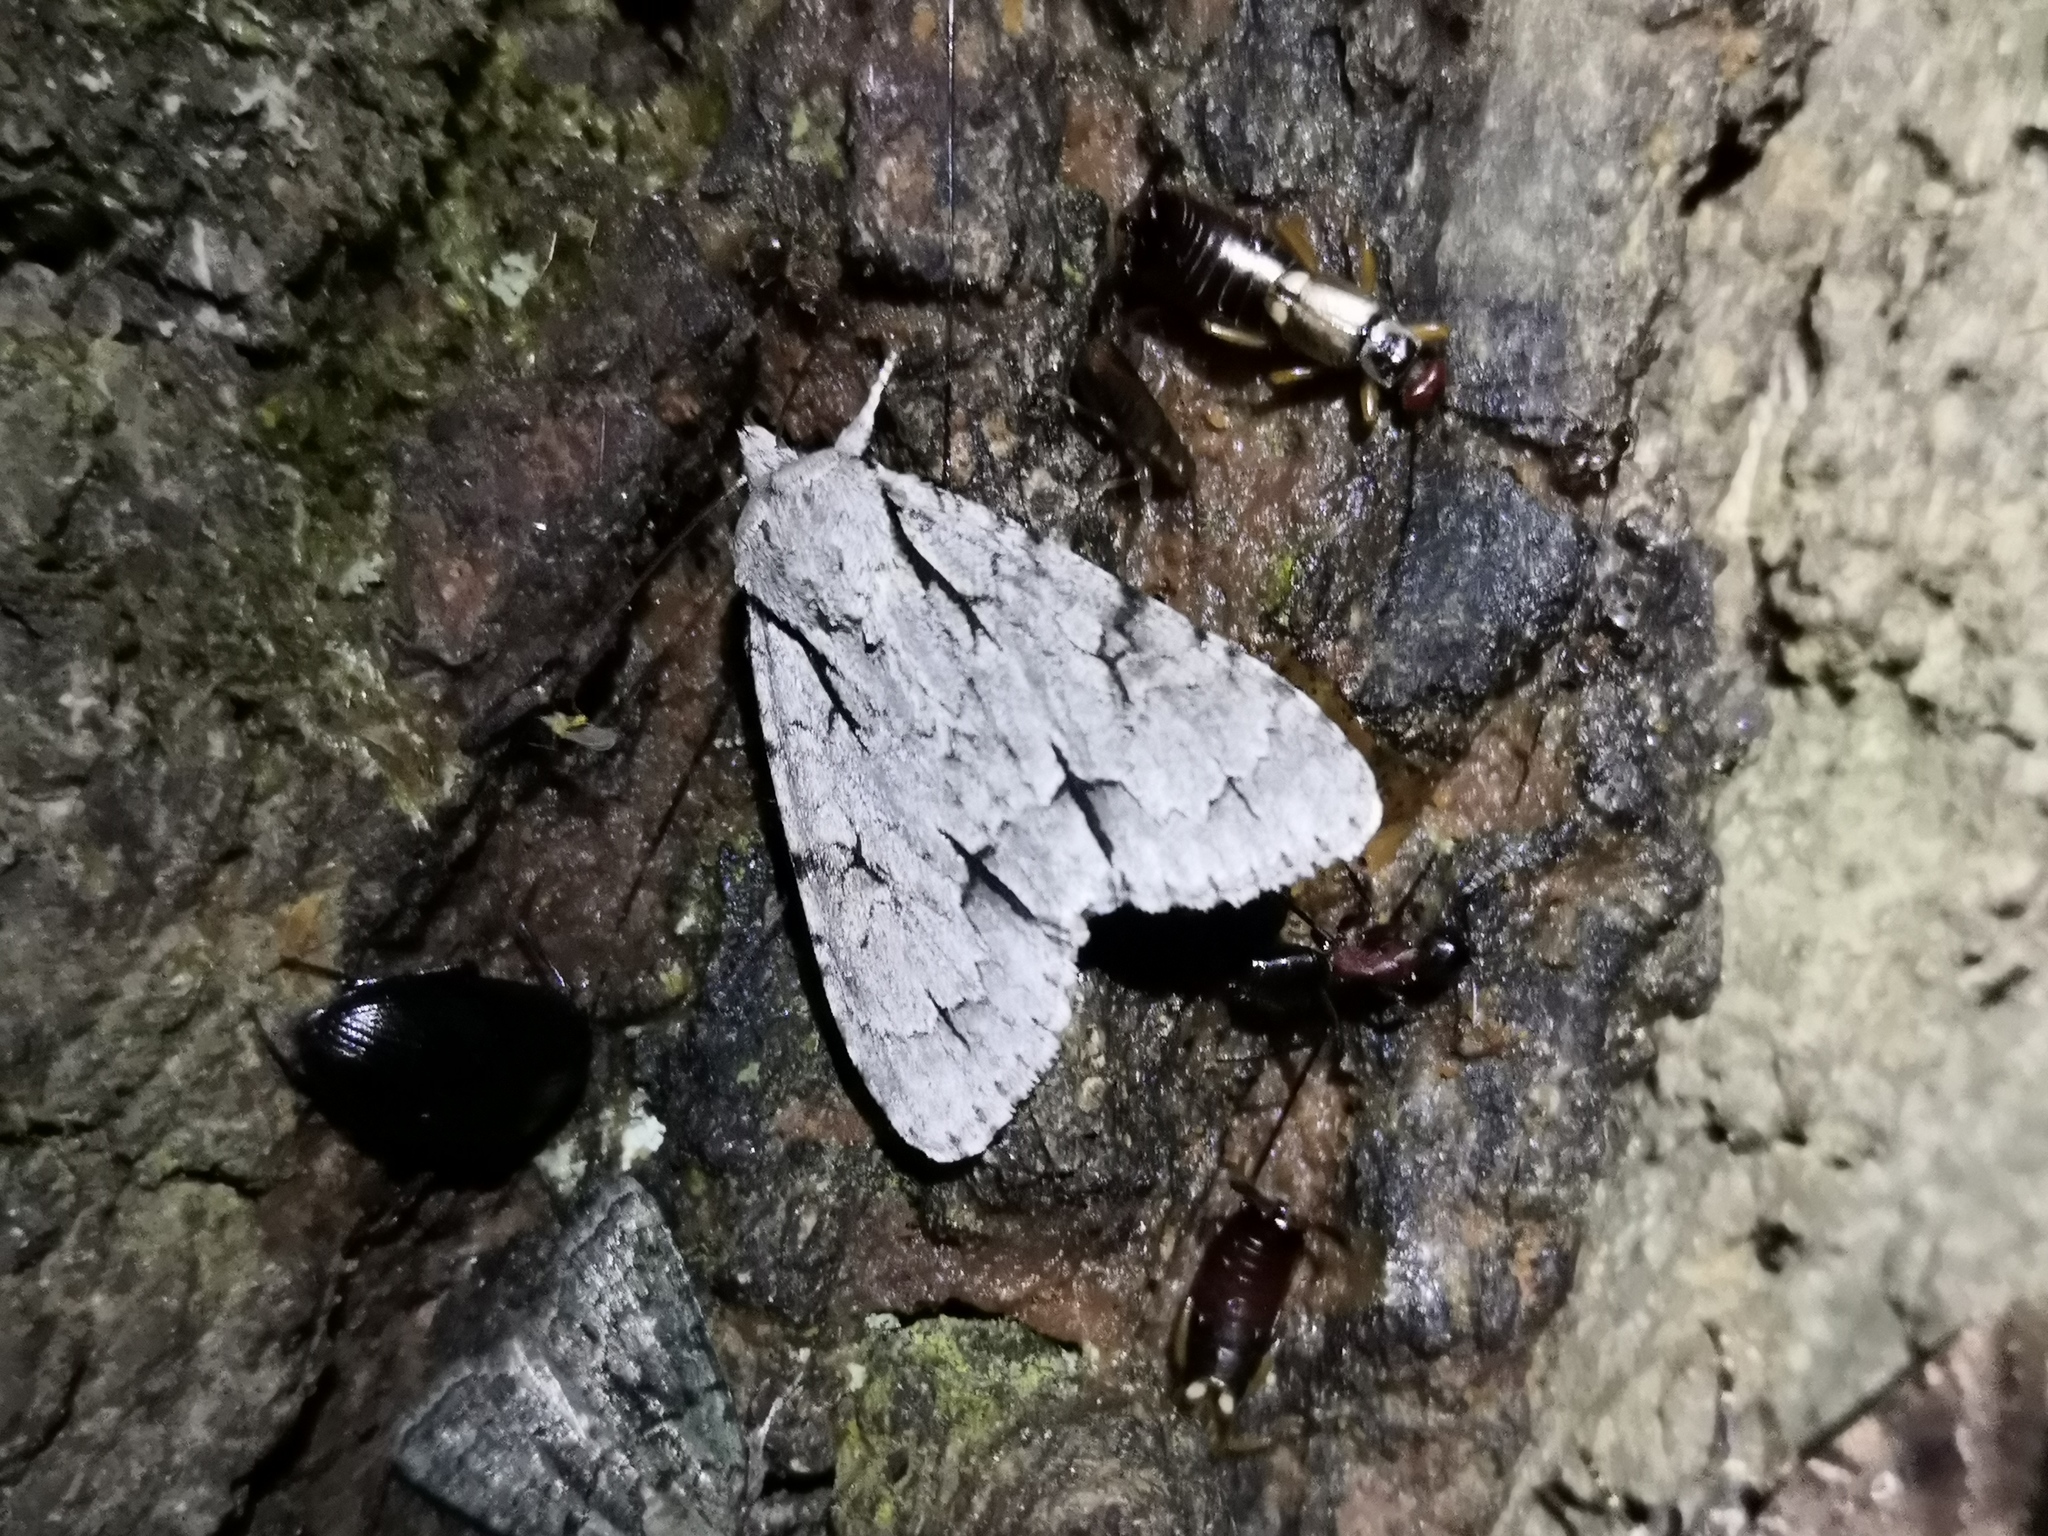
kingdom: Animalia
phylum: Arthropoda
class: Insecta
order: Lepidoptera
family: Noctuidae
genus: Acronicta
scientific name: Acronicta psi
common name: Grey dagger
